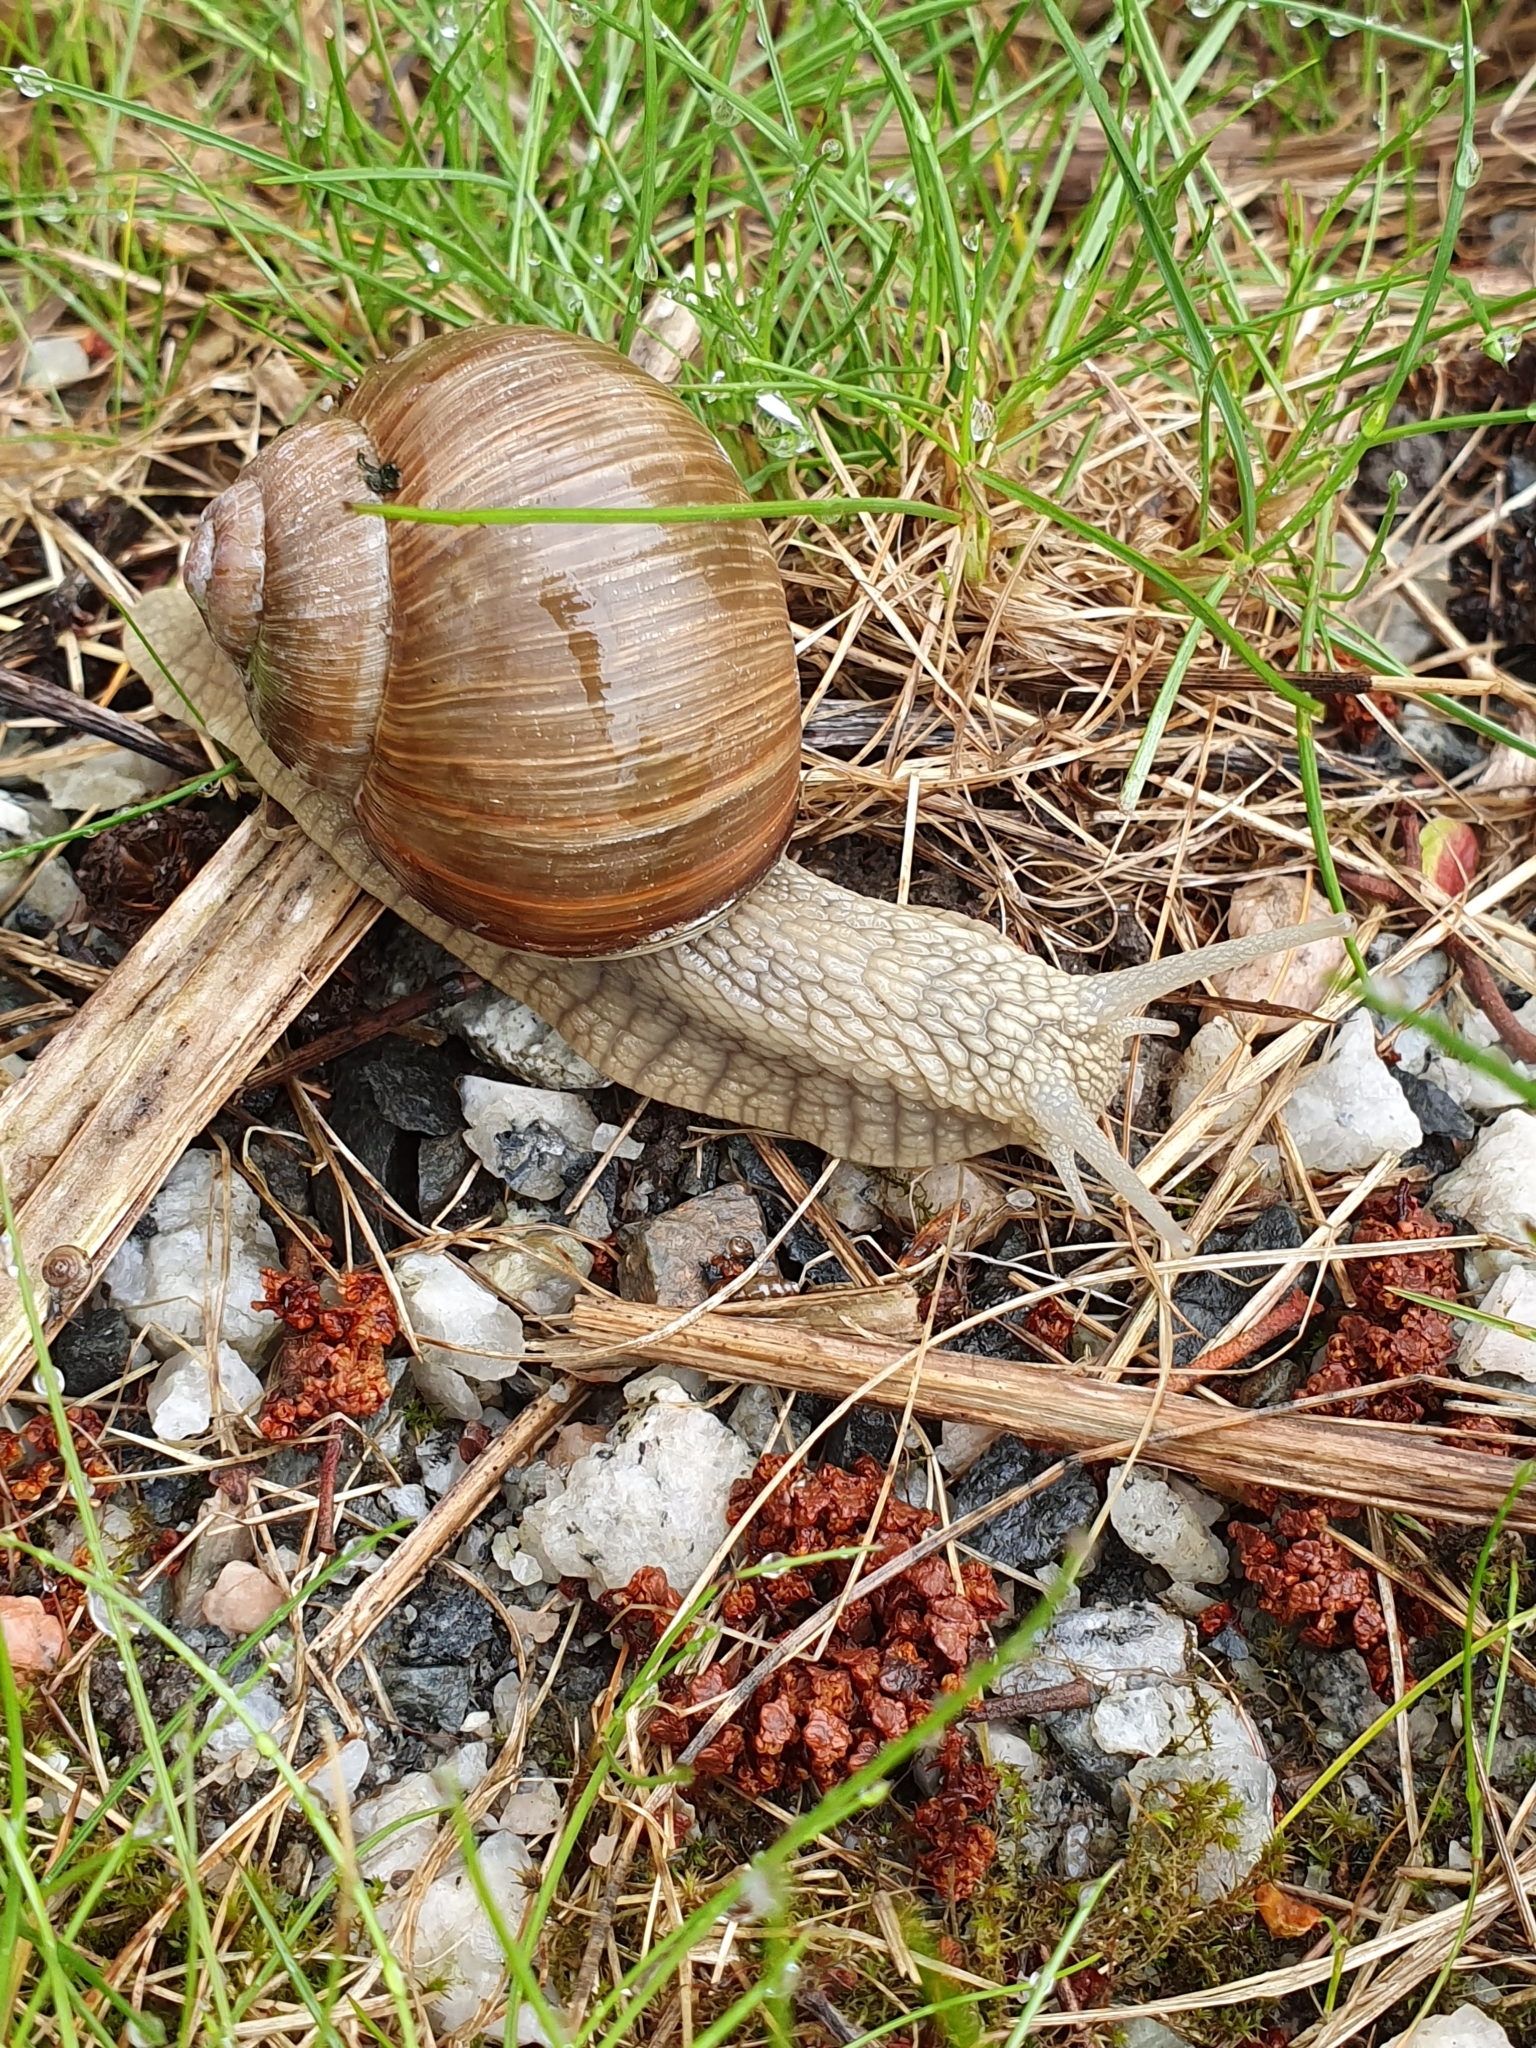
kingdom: Animalia
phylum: Mollusca
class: Gastropoda
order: Stylommatophora
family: Helicidae
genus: Helix
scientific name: Helix pomatia
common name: Roman snail
